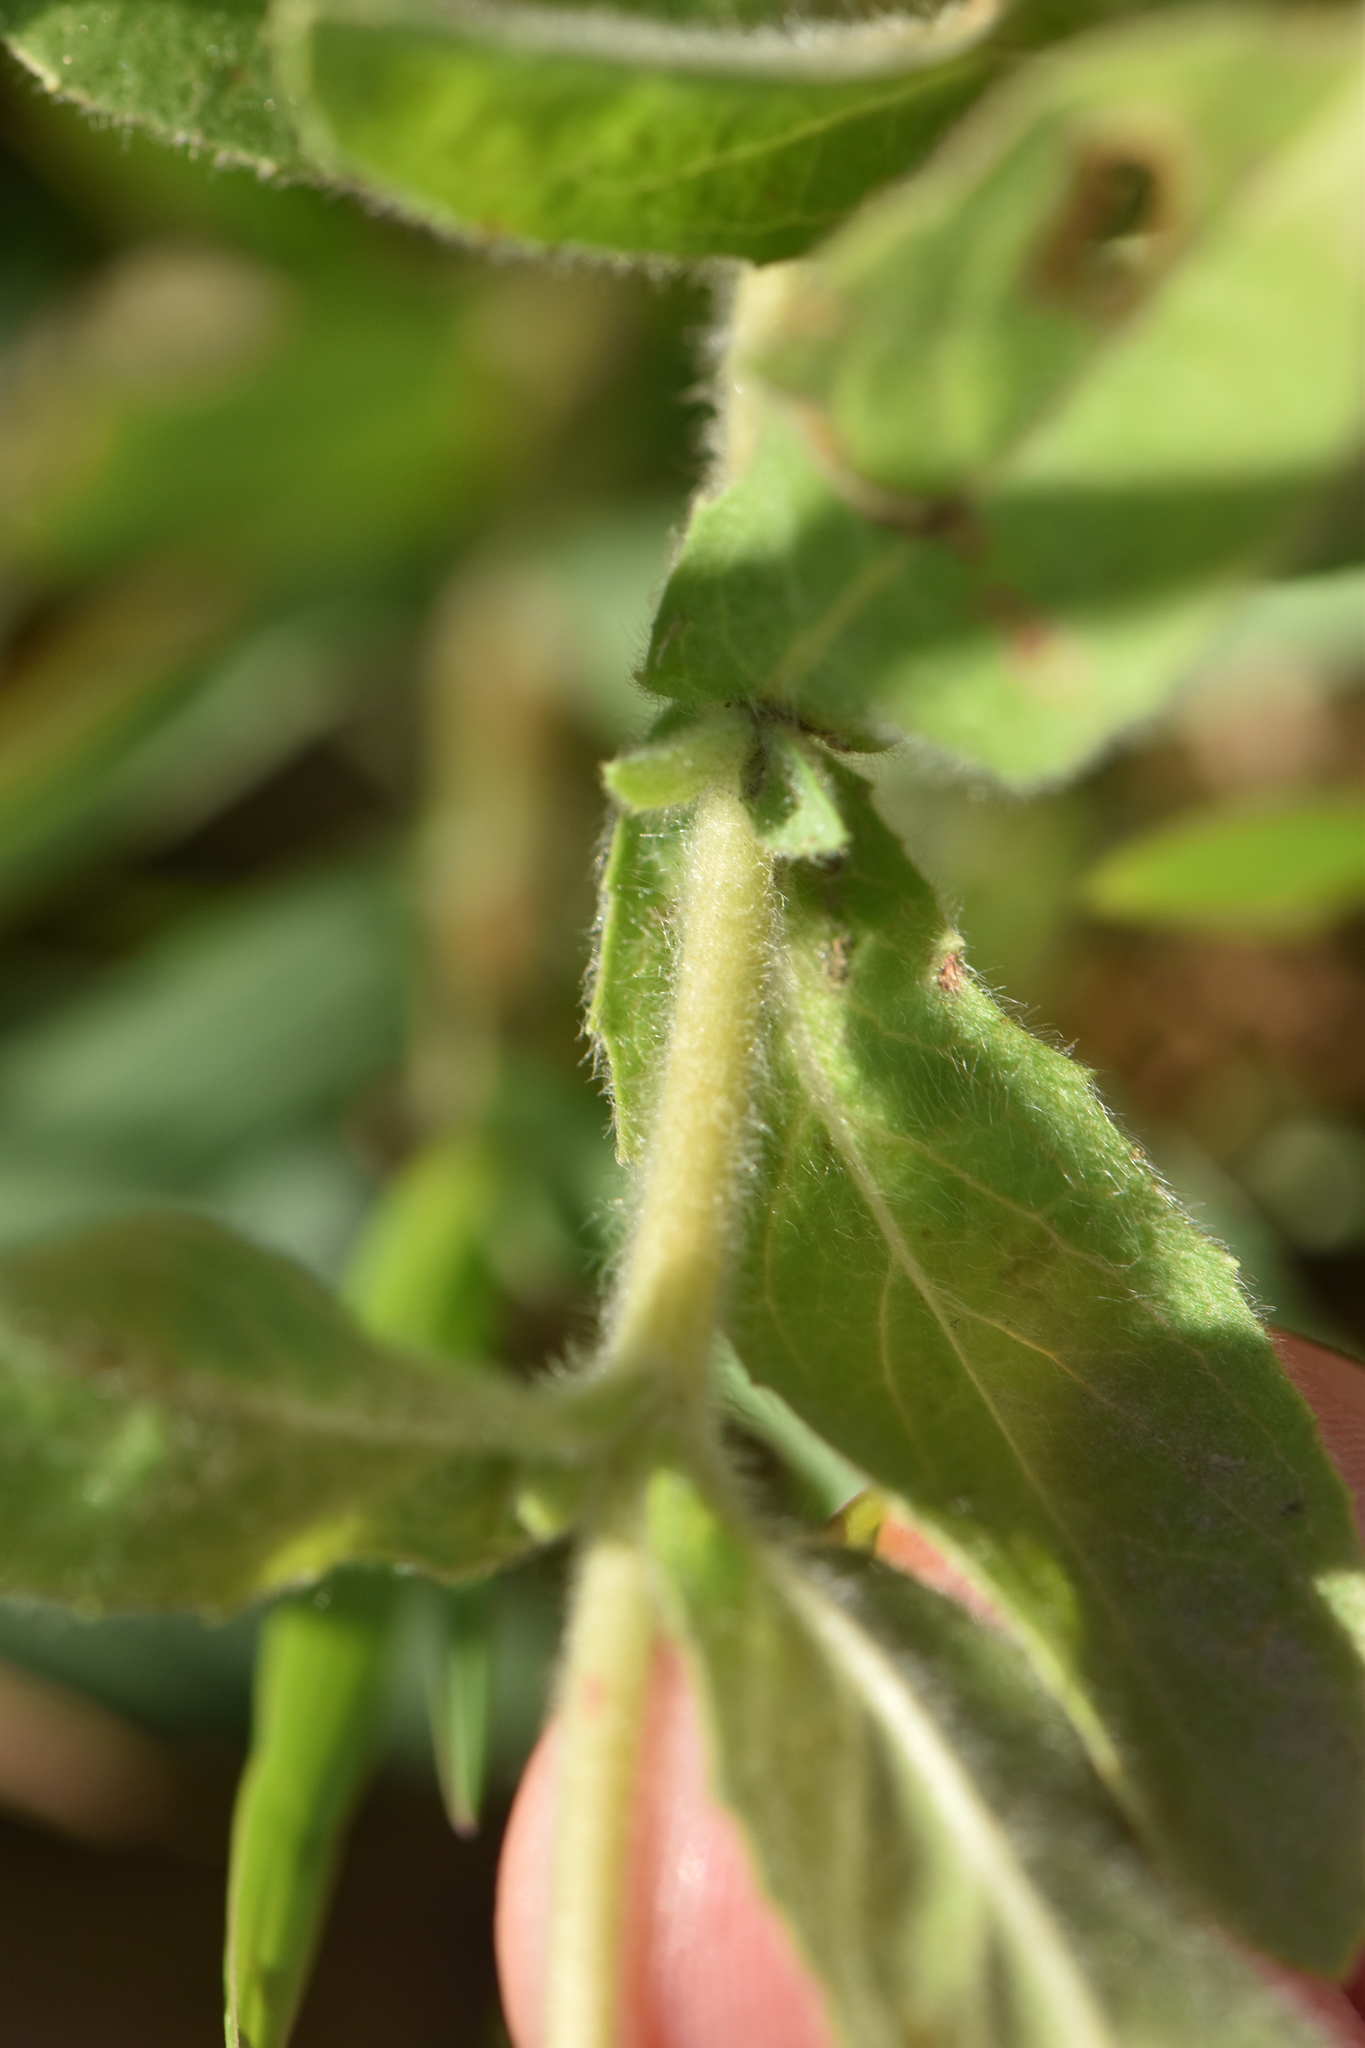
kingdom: Plantae
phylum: Tracheophyta
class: Magnoliopsida
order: Myrtales
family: Onagraceae
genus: Epilobium
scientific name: Epilobium hirsutum
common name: Great willowherb
